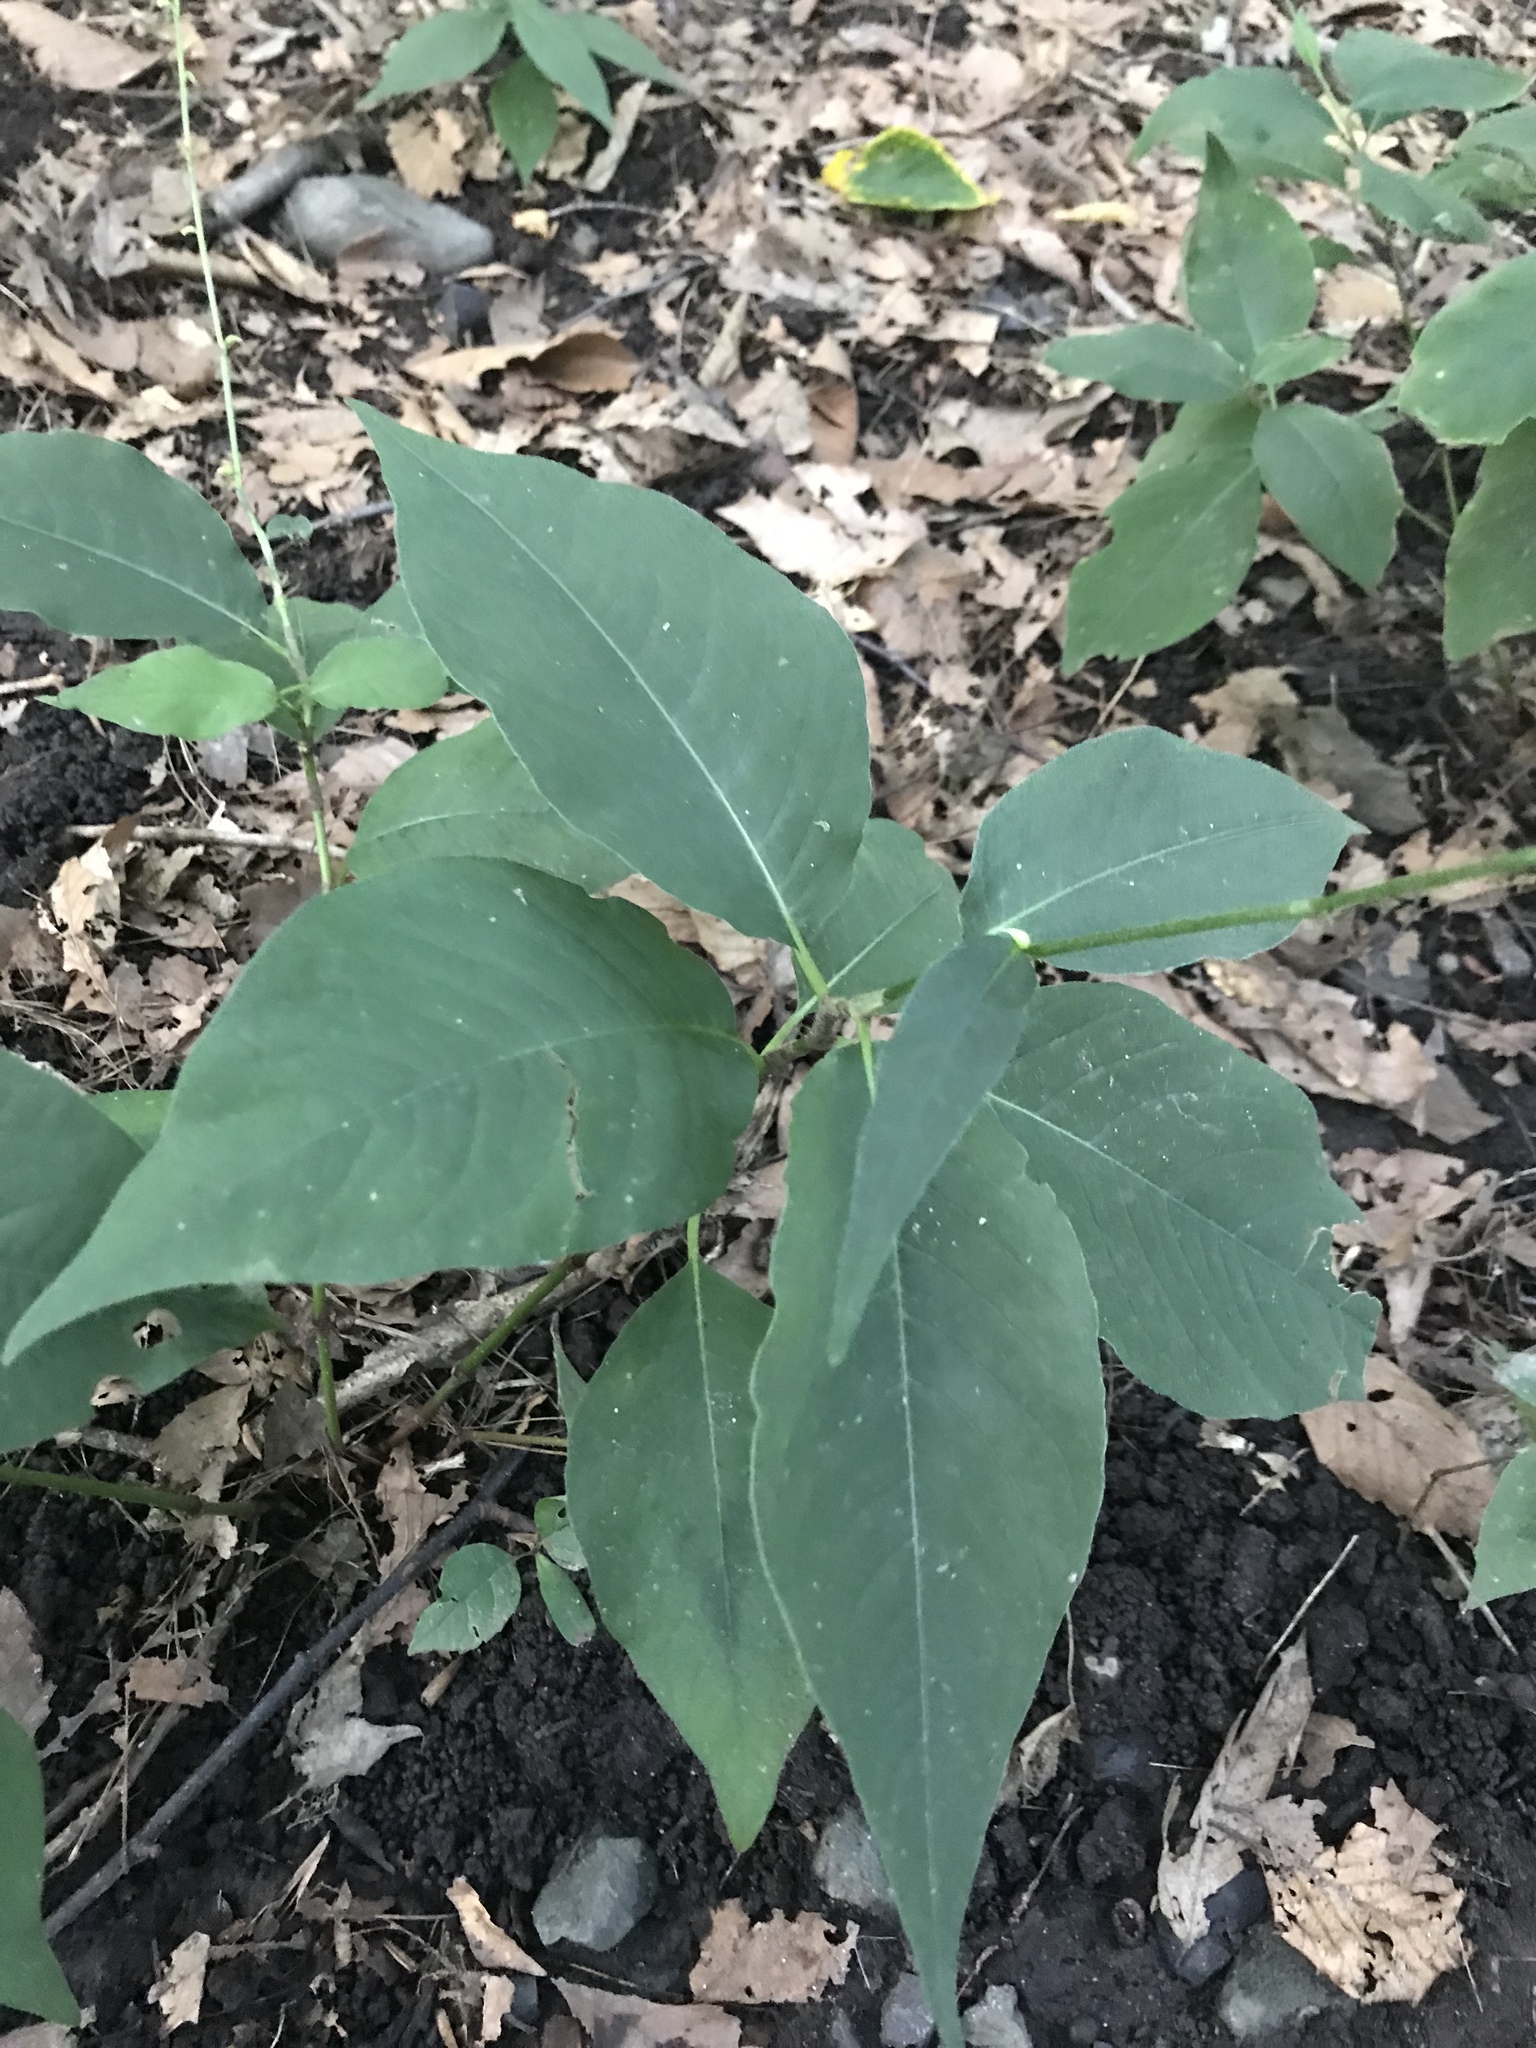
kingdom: Plantae
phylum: Tracheophyta
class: Magnoliopsida
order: Caryophyllales
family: Polygonaceae
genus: Persicaria
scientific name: Persicaria virginiana
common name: Jumpseed
